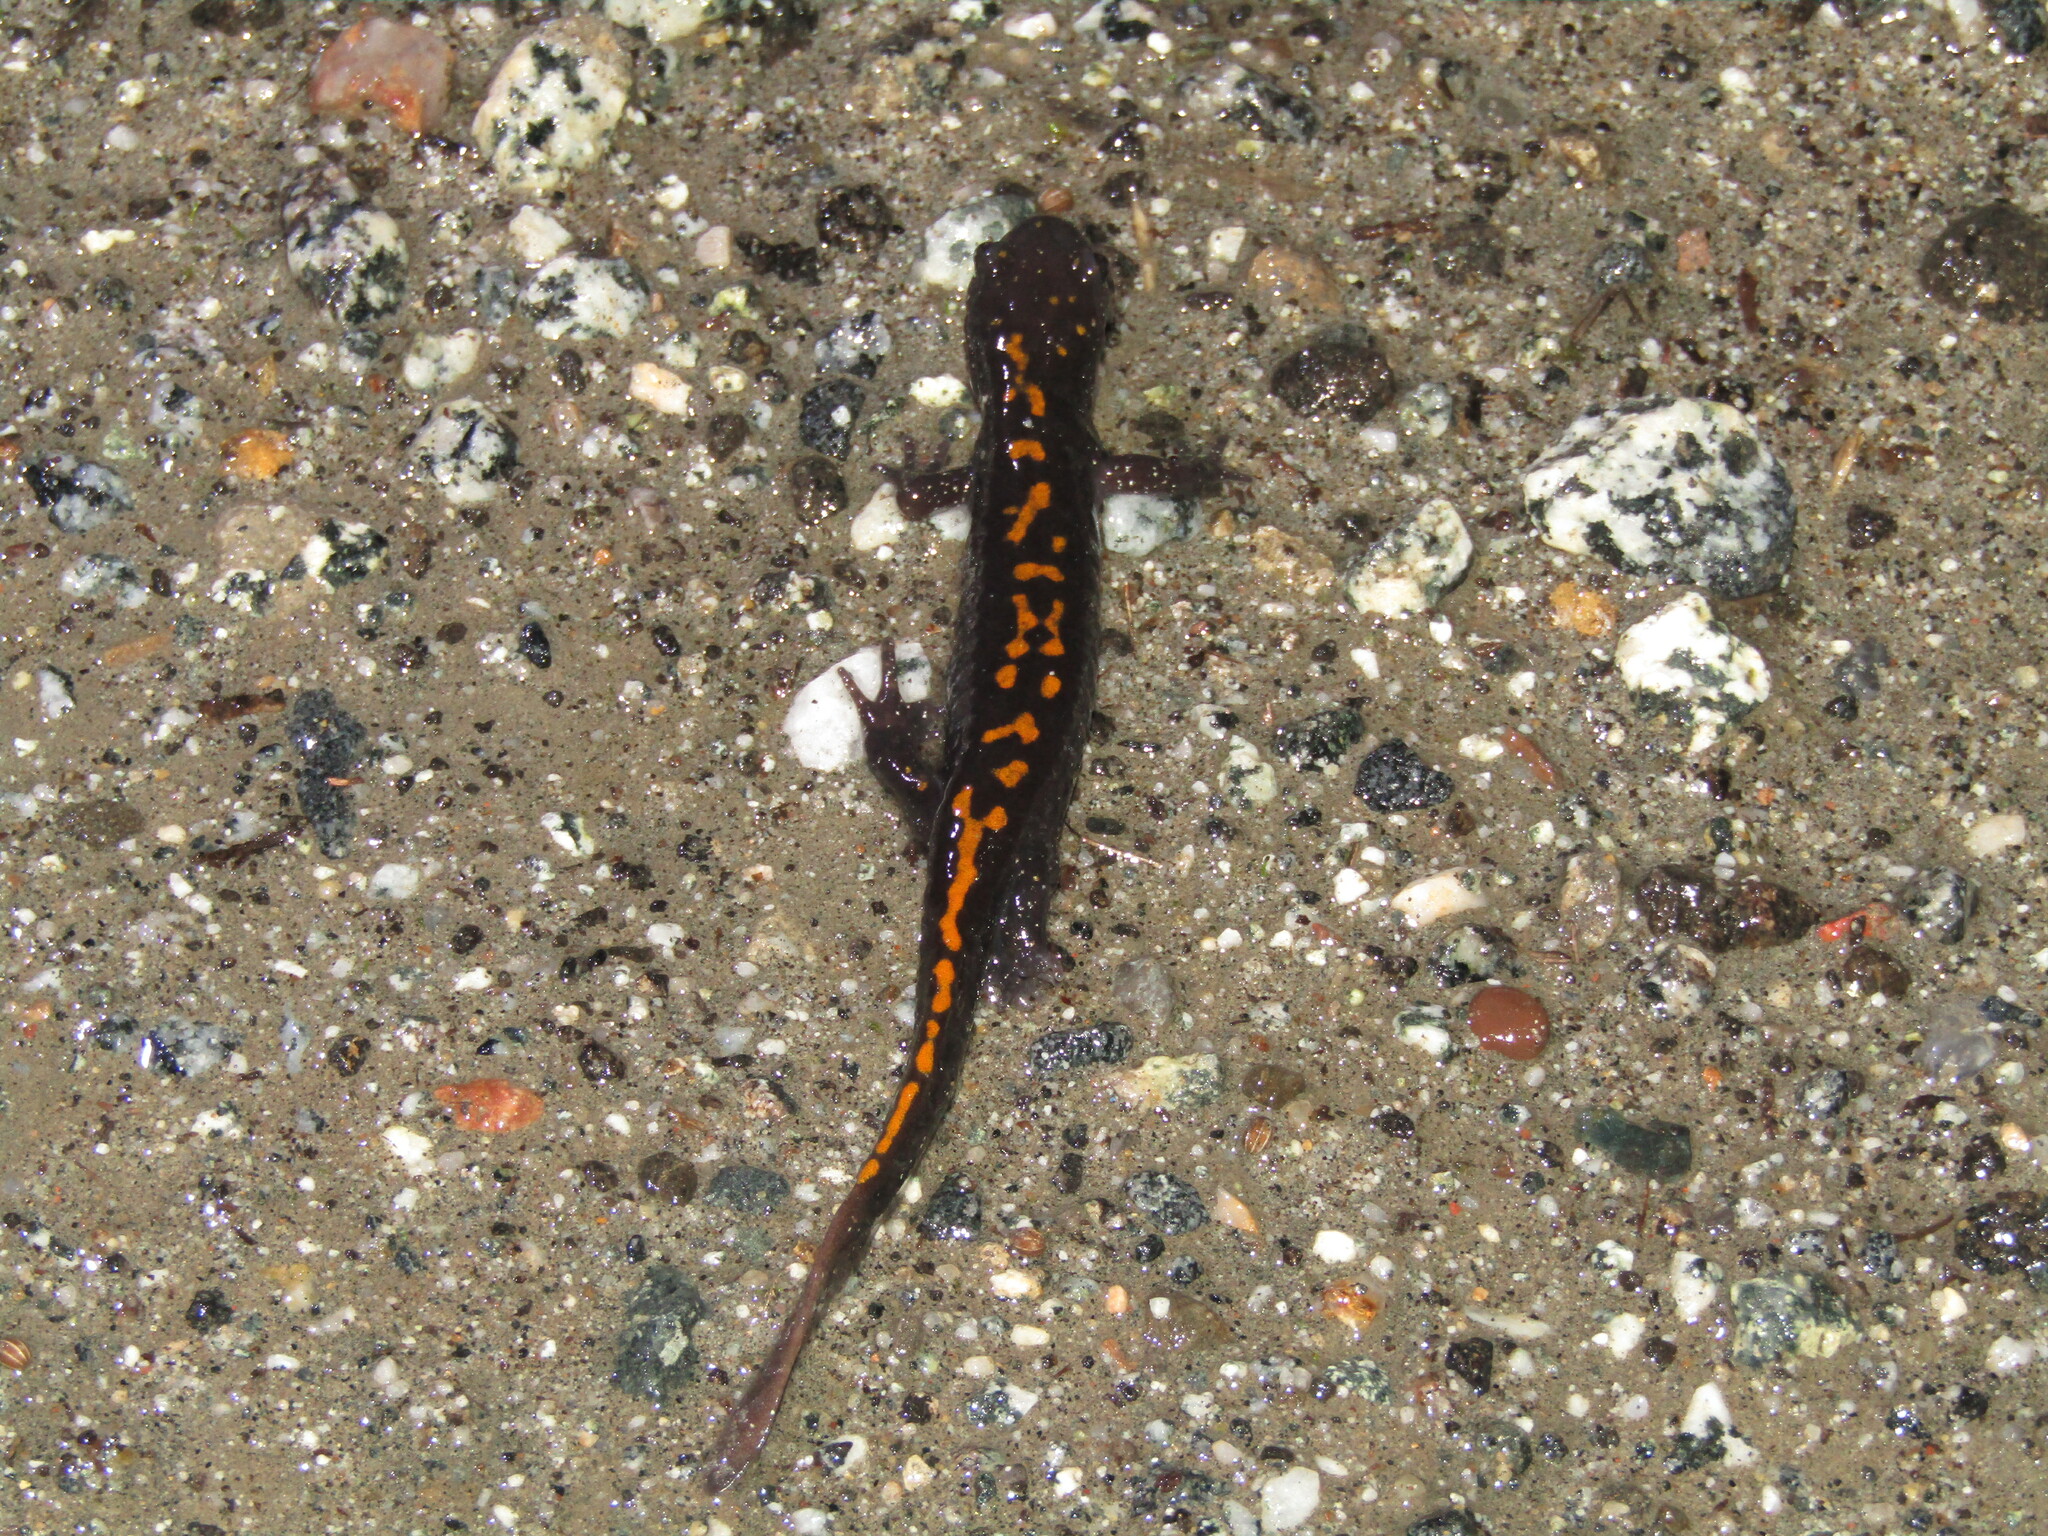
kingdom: Animalia
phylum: Chordata
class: Amphibia
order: Caudata
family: Ambystomatidae
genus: Ambystoma
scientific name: Ambystoma macrodactylum
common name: Long-toed salamander
